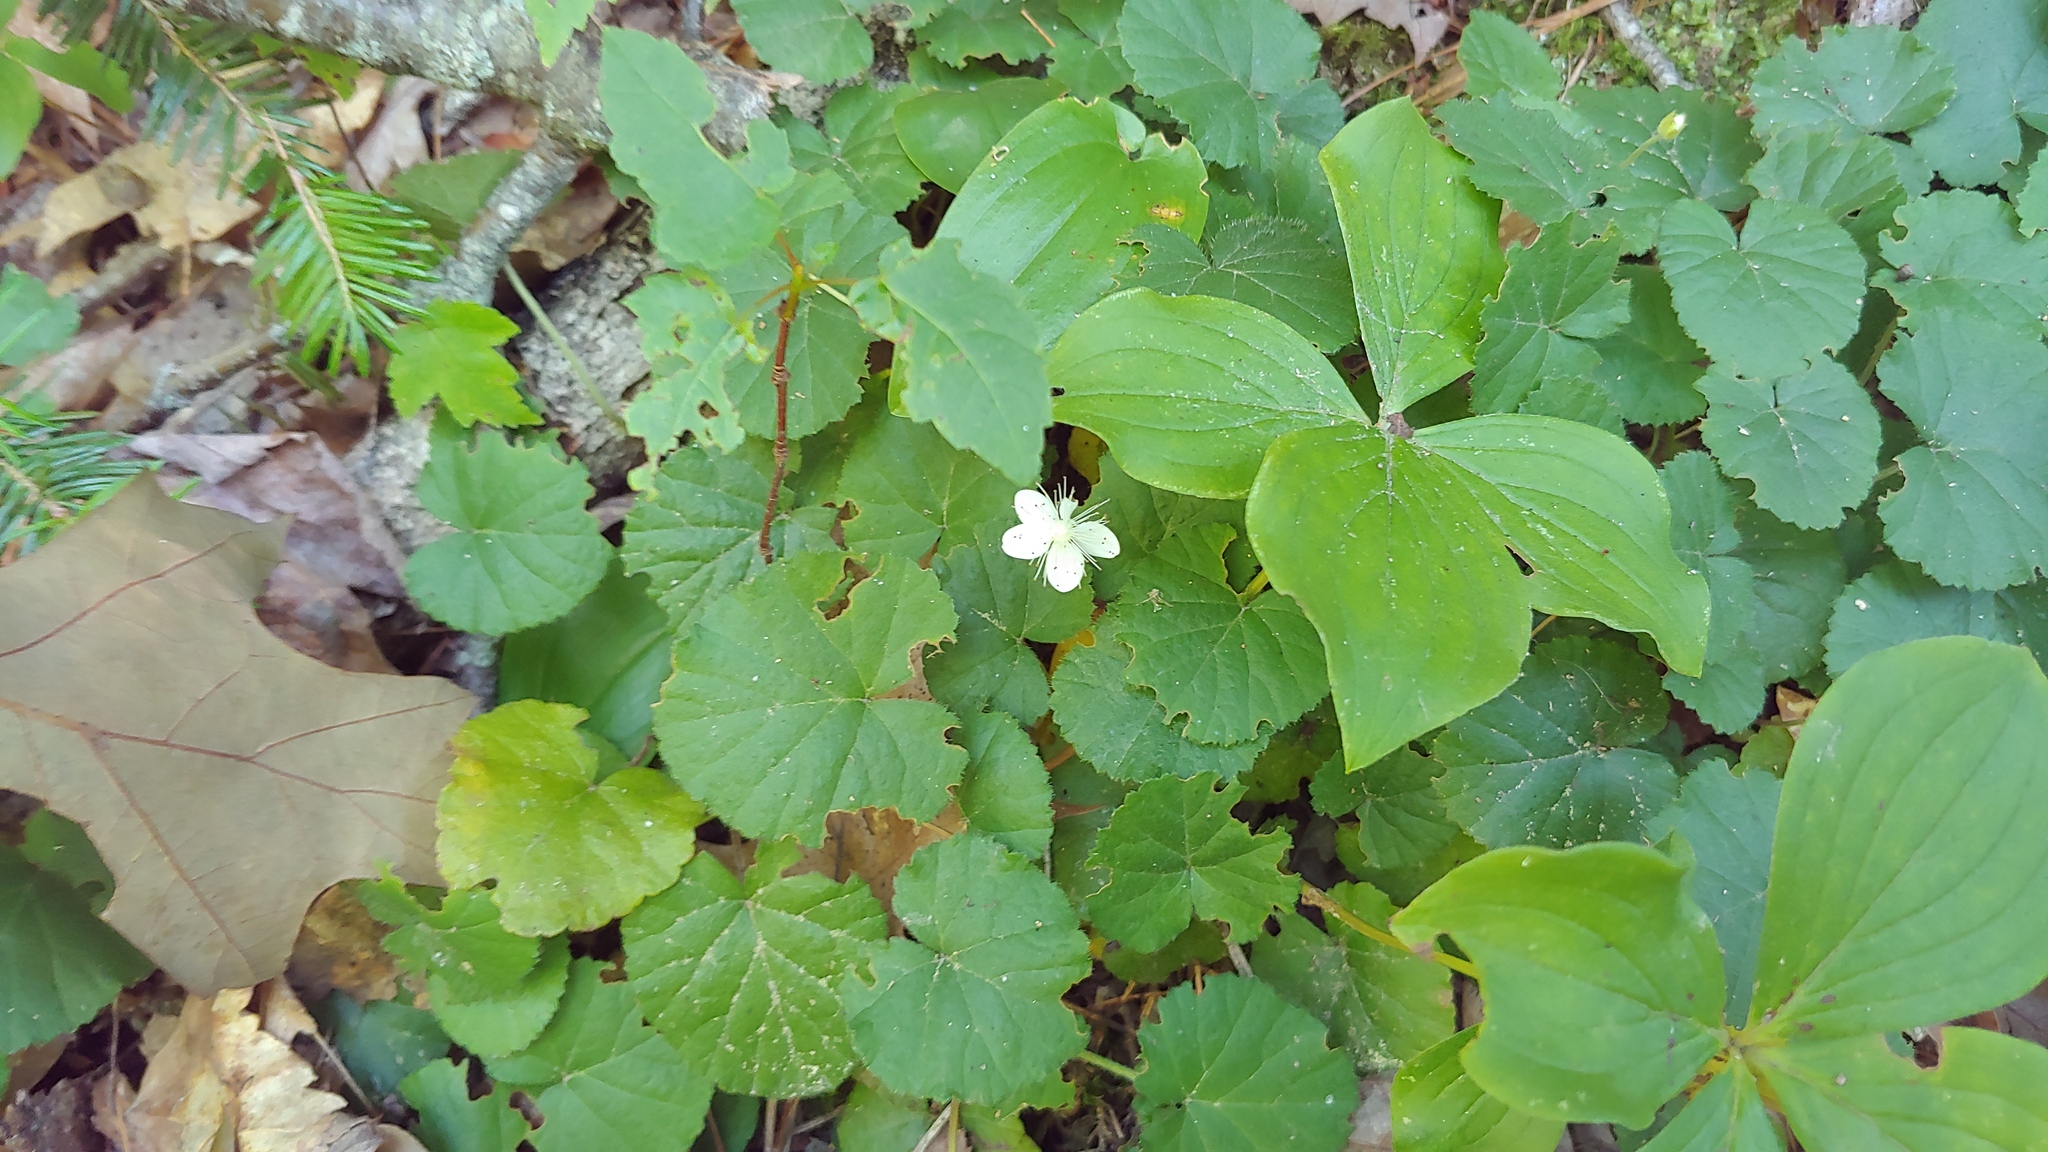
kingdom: Plantae
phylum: Tracheophyta
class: Magnoliopsida
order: Rosales
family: Rosaceae
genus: Dalibarda
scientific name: Dalibarda repens
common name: Dewdrop
